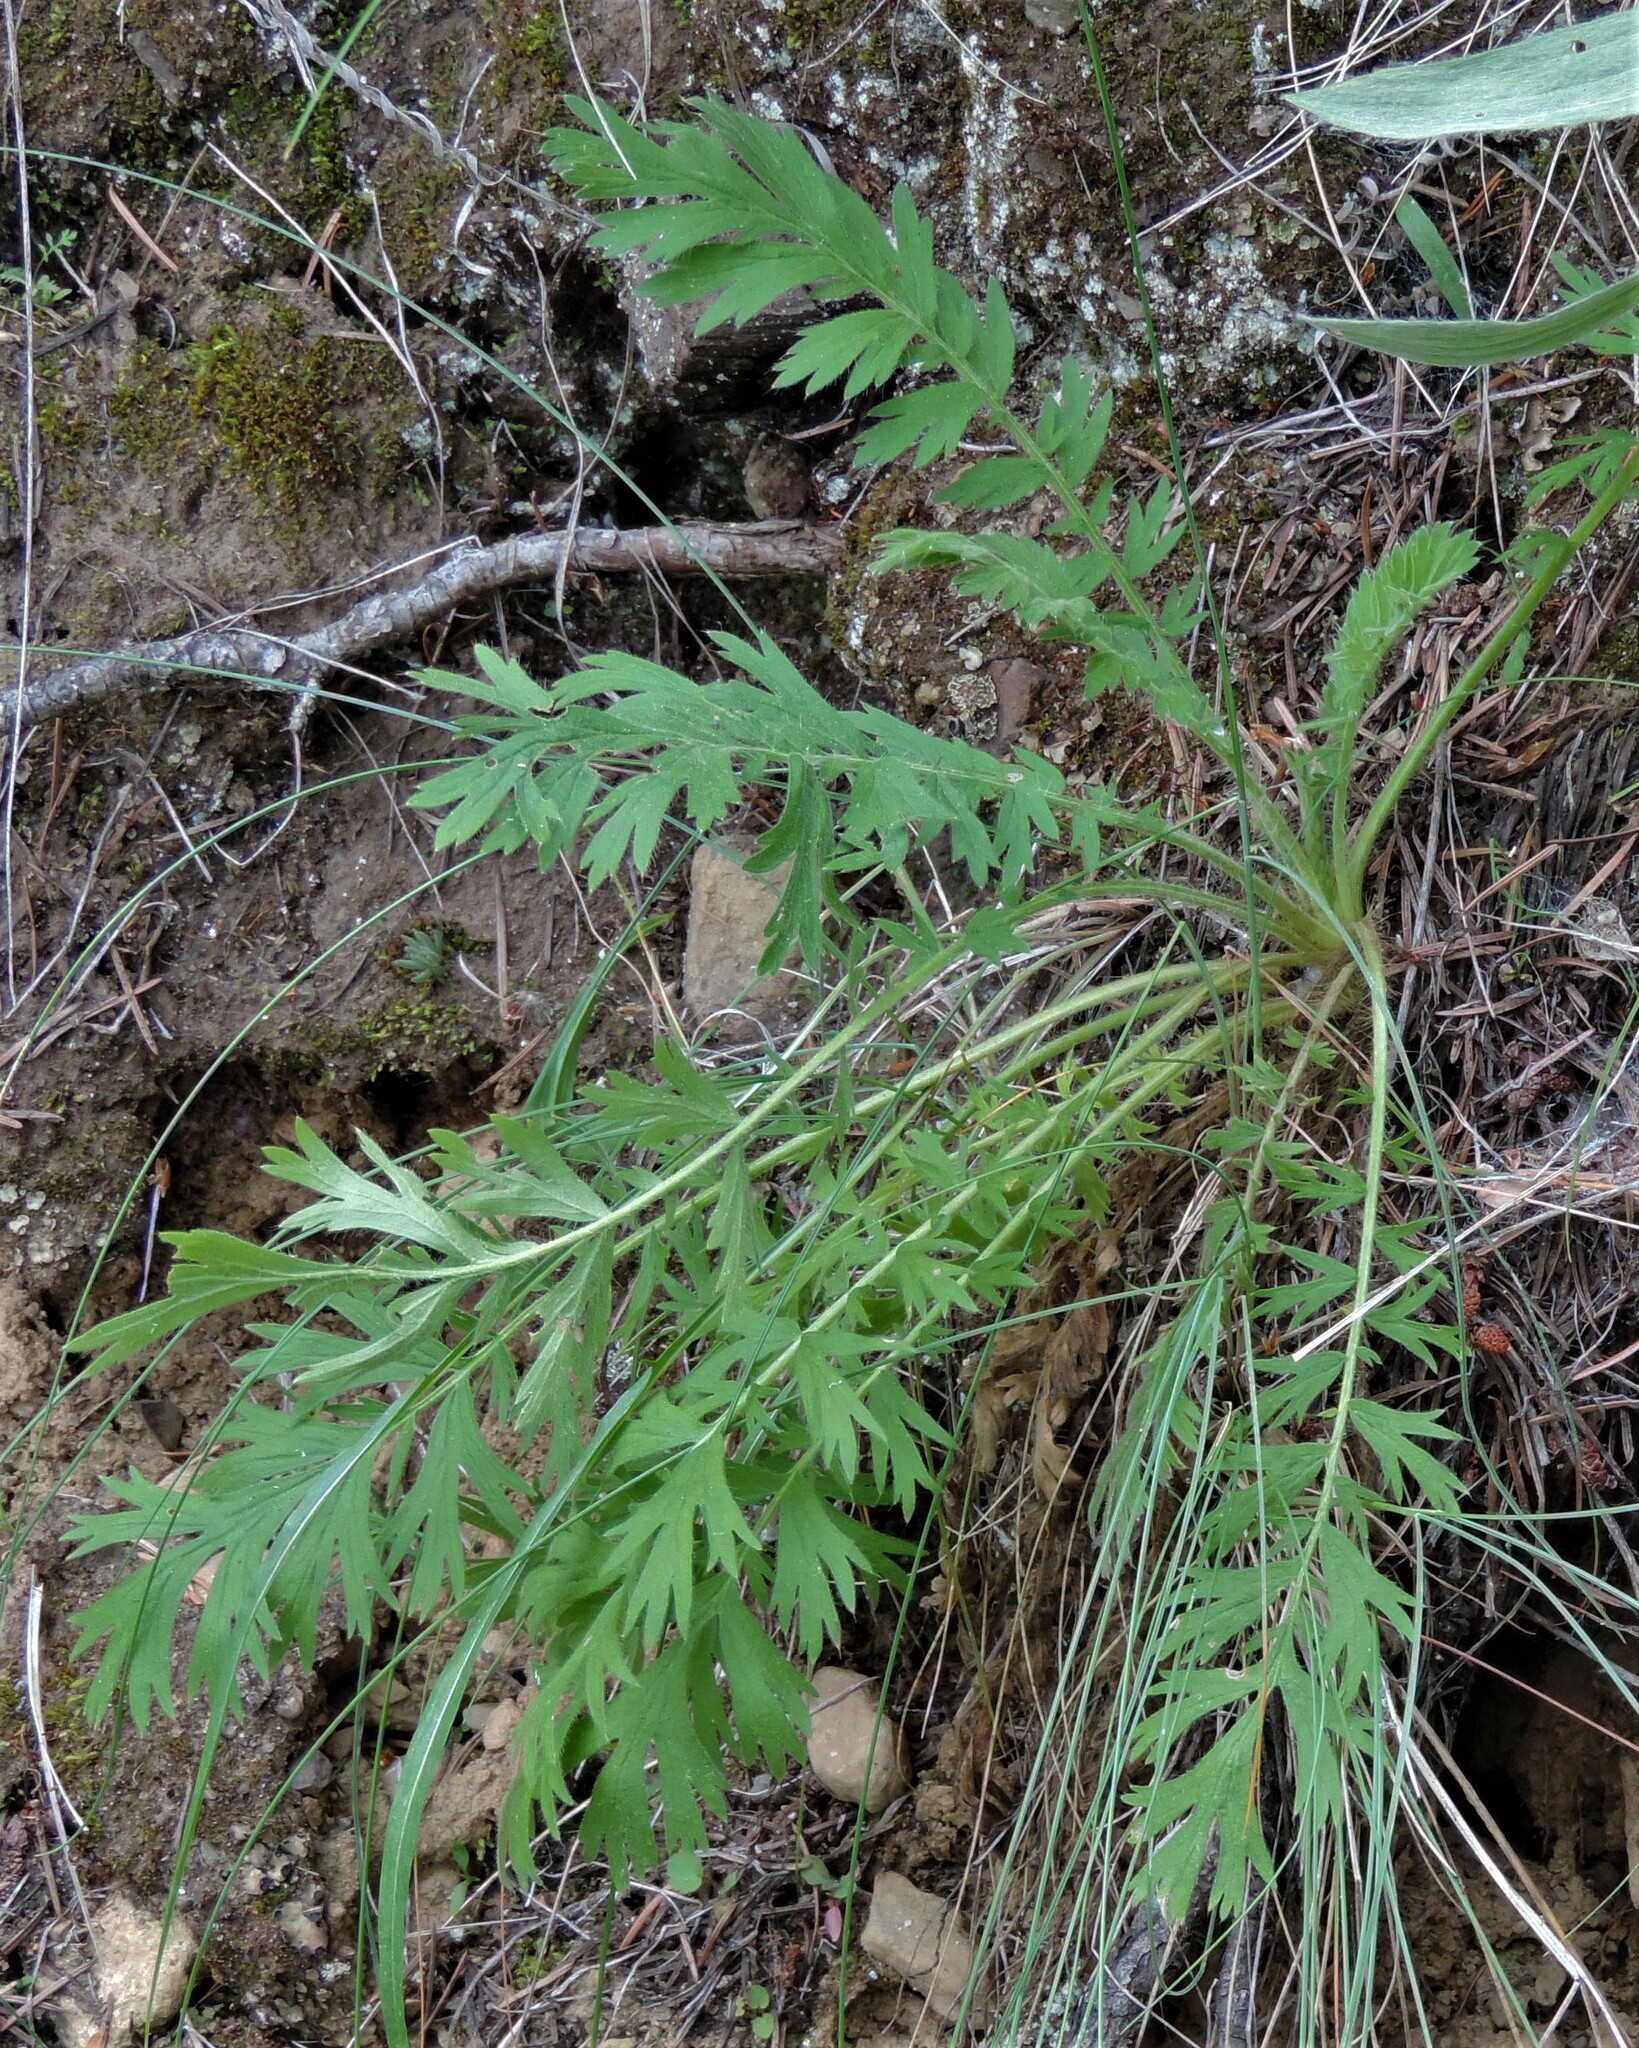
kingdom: Plantae
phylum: Tracheophyta
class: Magnoliopsida
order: Rosales
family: Rosaceae
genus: Geum
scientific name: Geum triflorum
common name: Old man's whiskers
